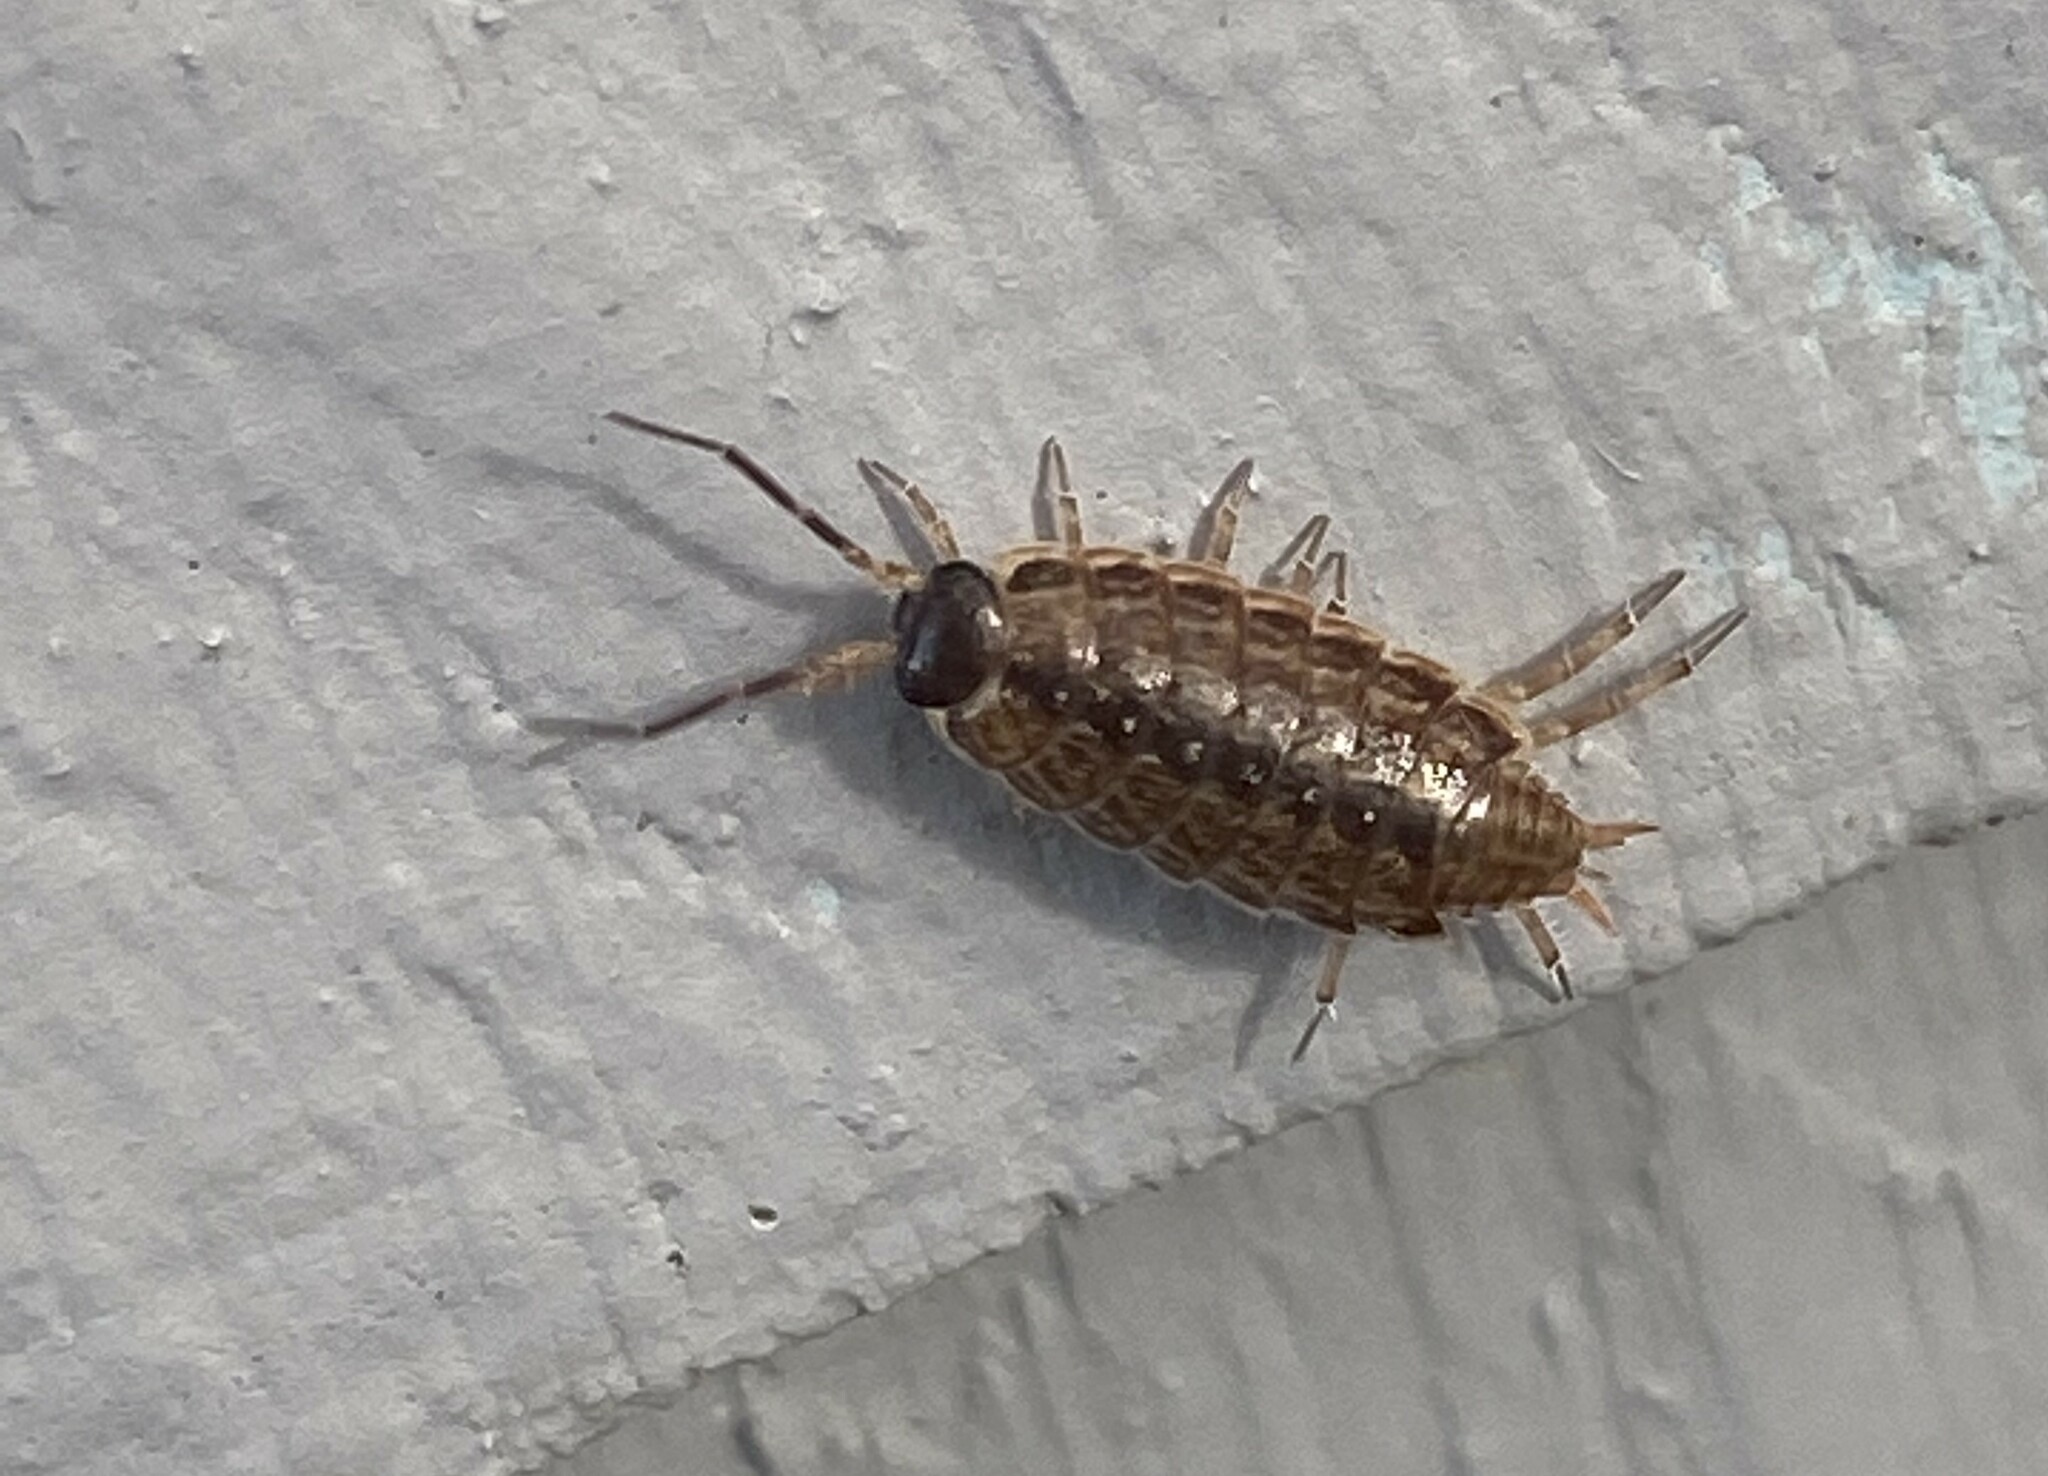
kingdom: Animalia
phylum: Arthropoda
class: Malacostraca
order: Isopoda
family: Philosciidae
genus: Philoscia
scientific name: Philoscia muscorum
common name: Common striped woodlouse
